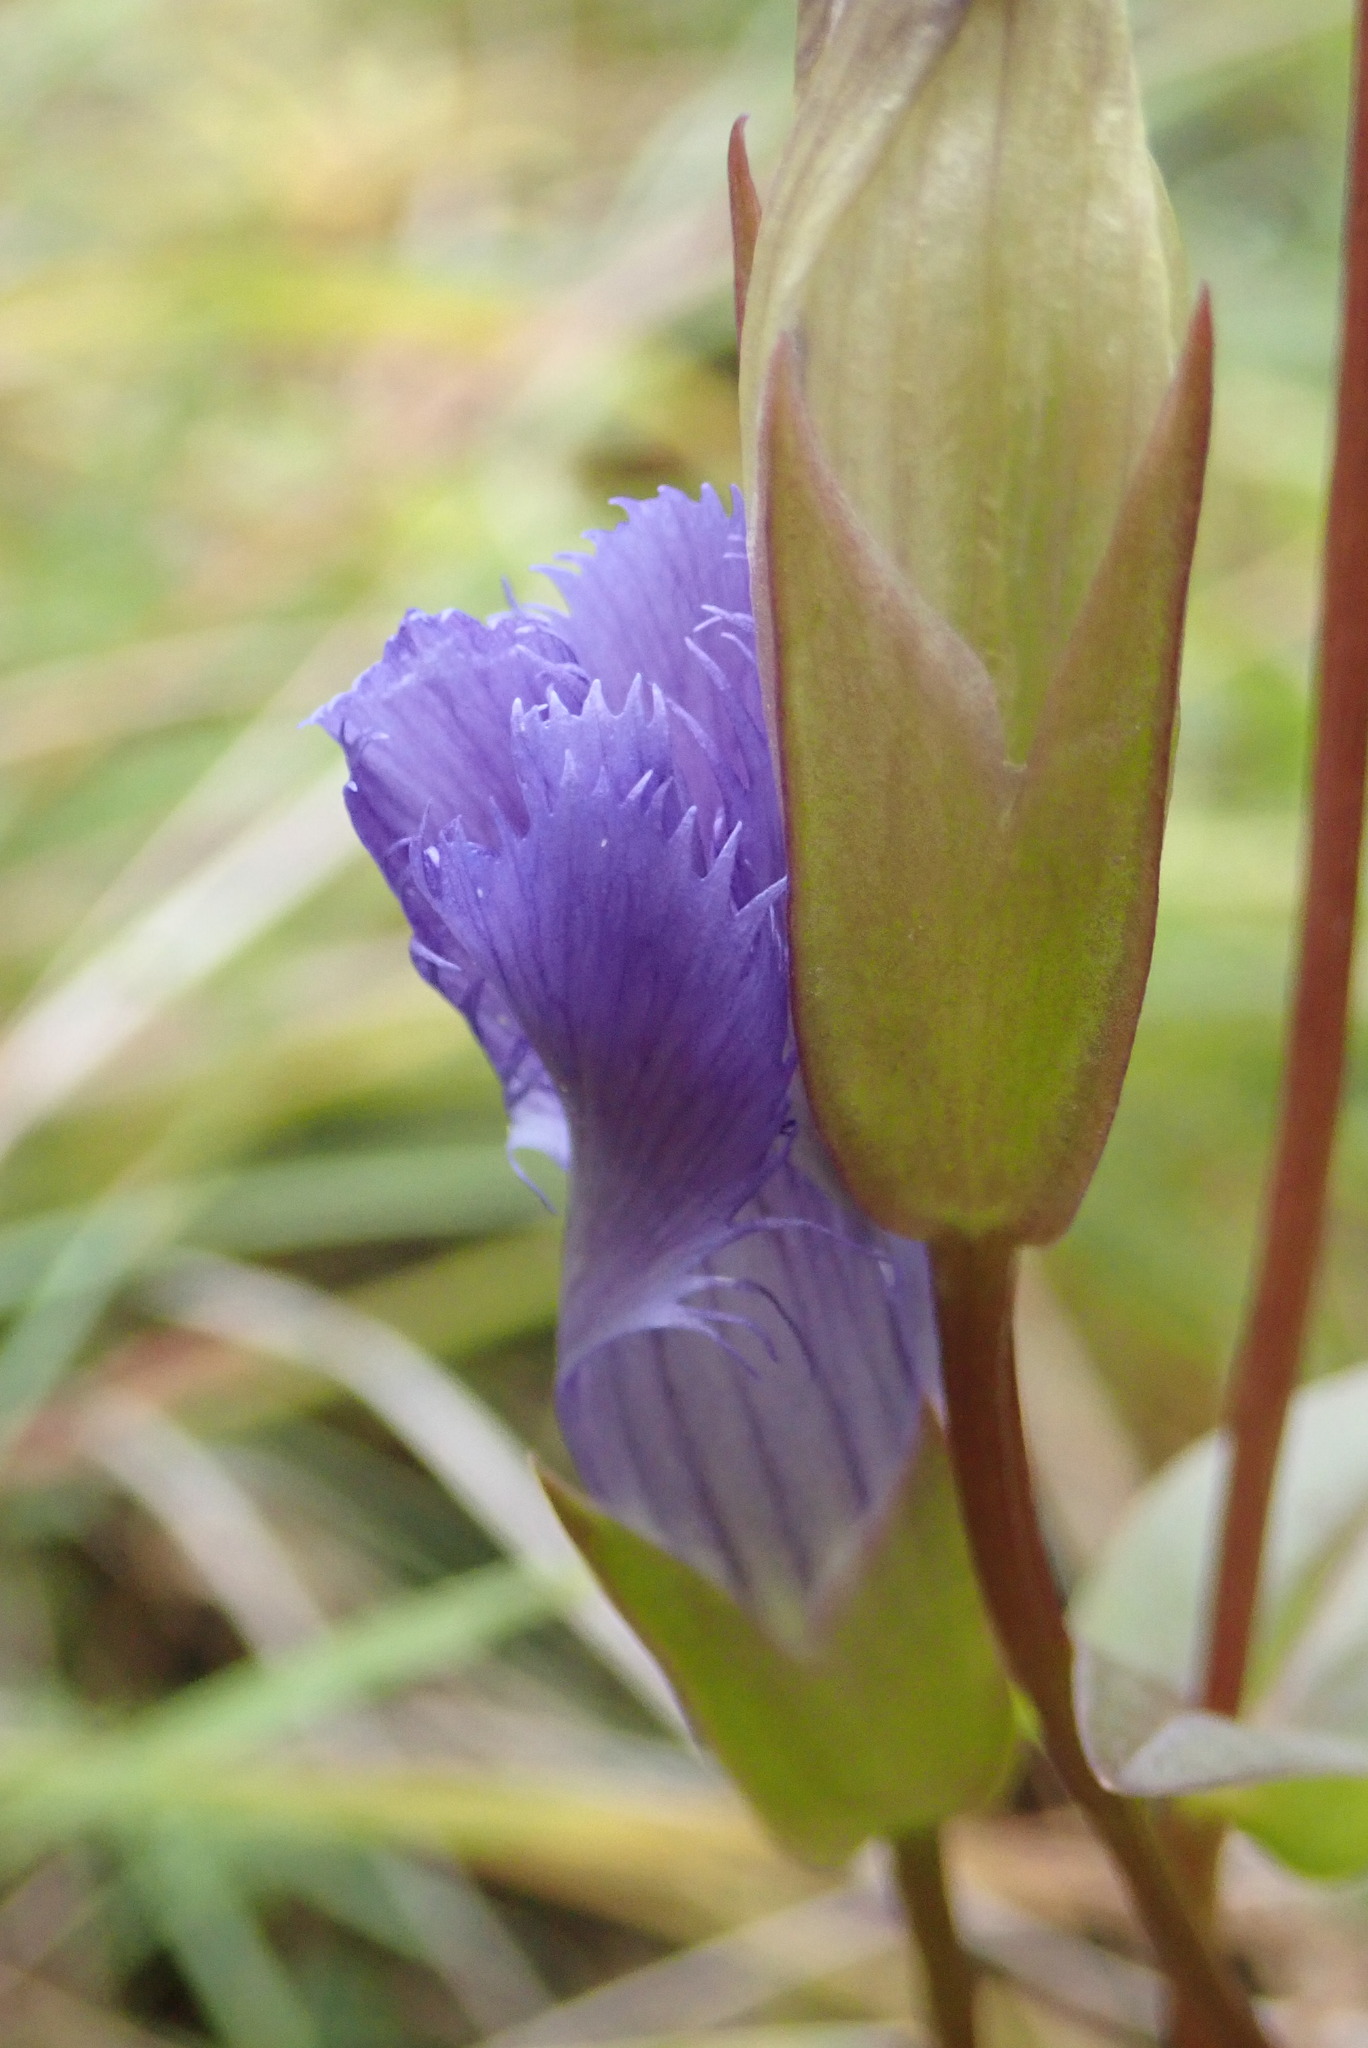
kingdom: Plantae
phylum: Tracheophyta
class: Magnoliopsida
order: Gentianales
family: Gentianaceae
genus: Gentianopsis
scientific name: Gentianopsis crinita
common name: Fringed-gentian
